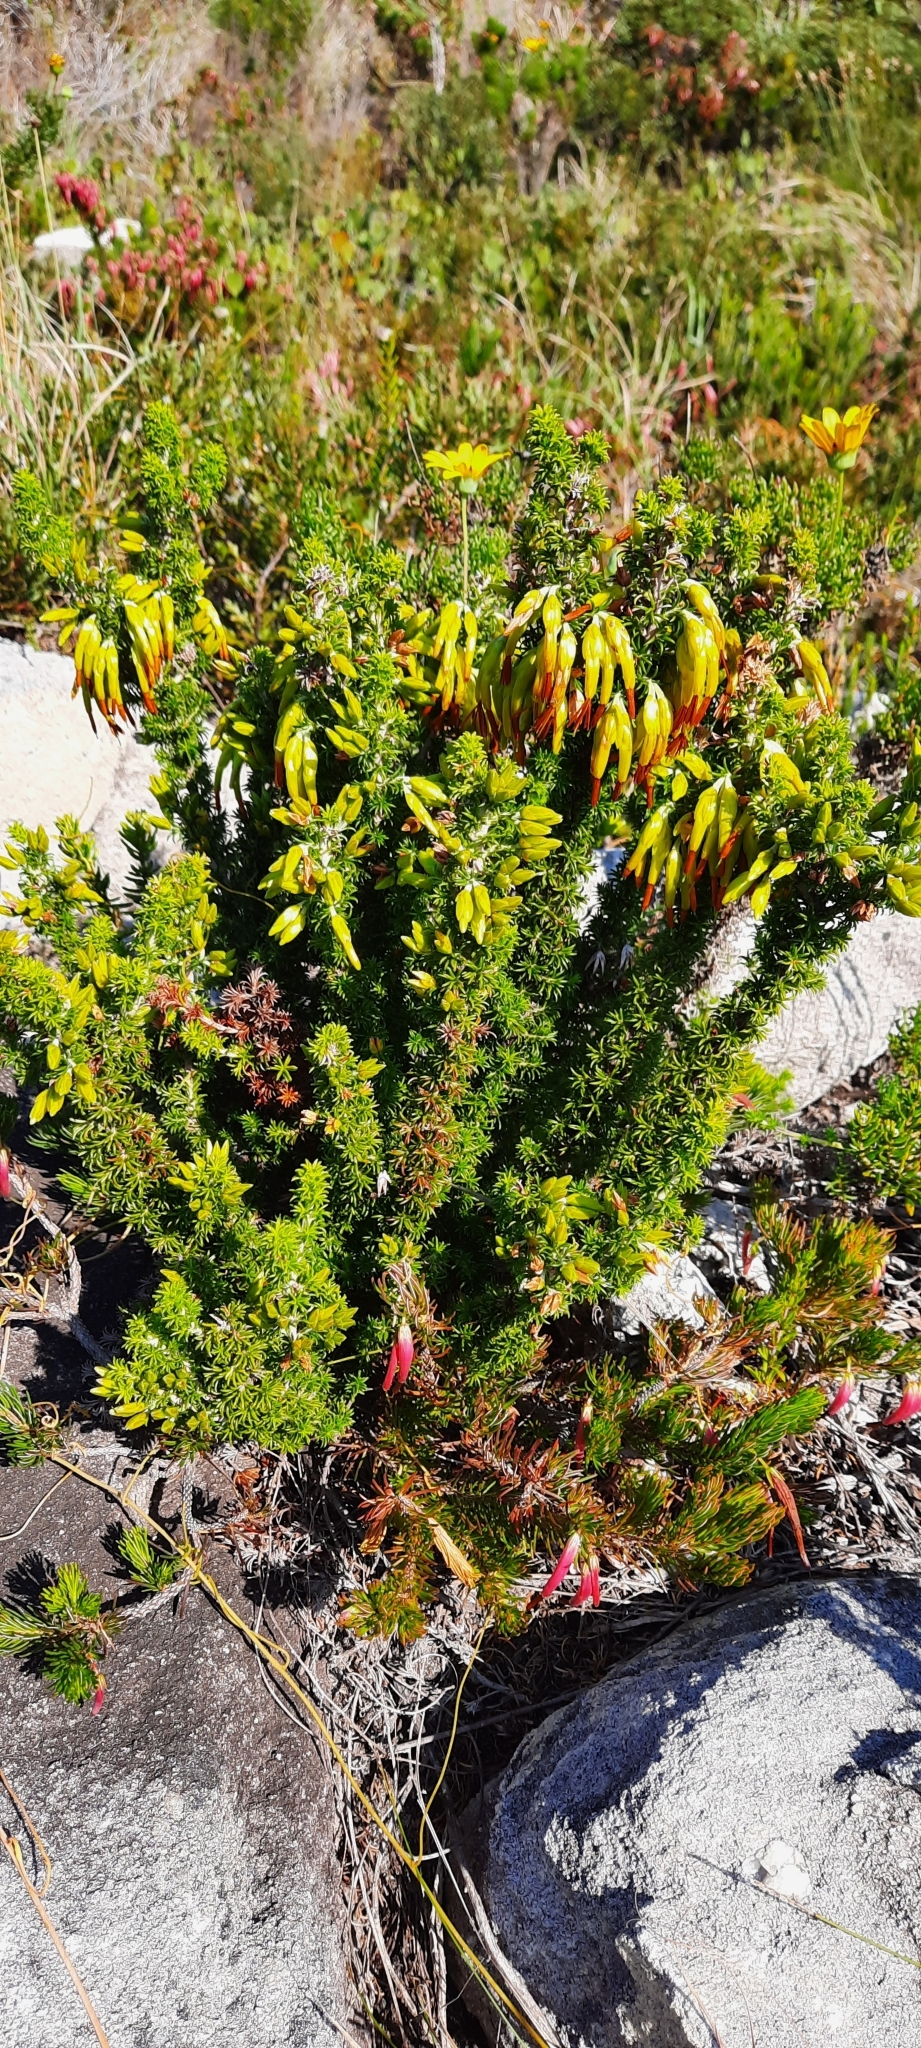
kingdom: Plantae
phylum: Tracheophyta
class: Magnoliopsida
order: Ericales
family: Ericaceae
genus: Erica
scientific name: Erica coccinea
